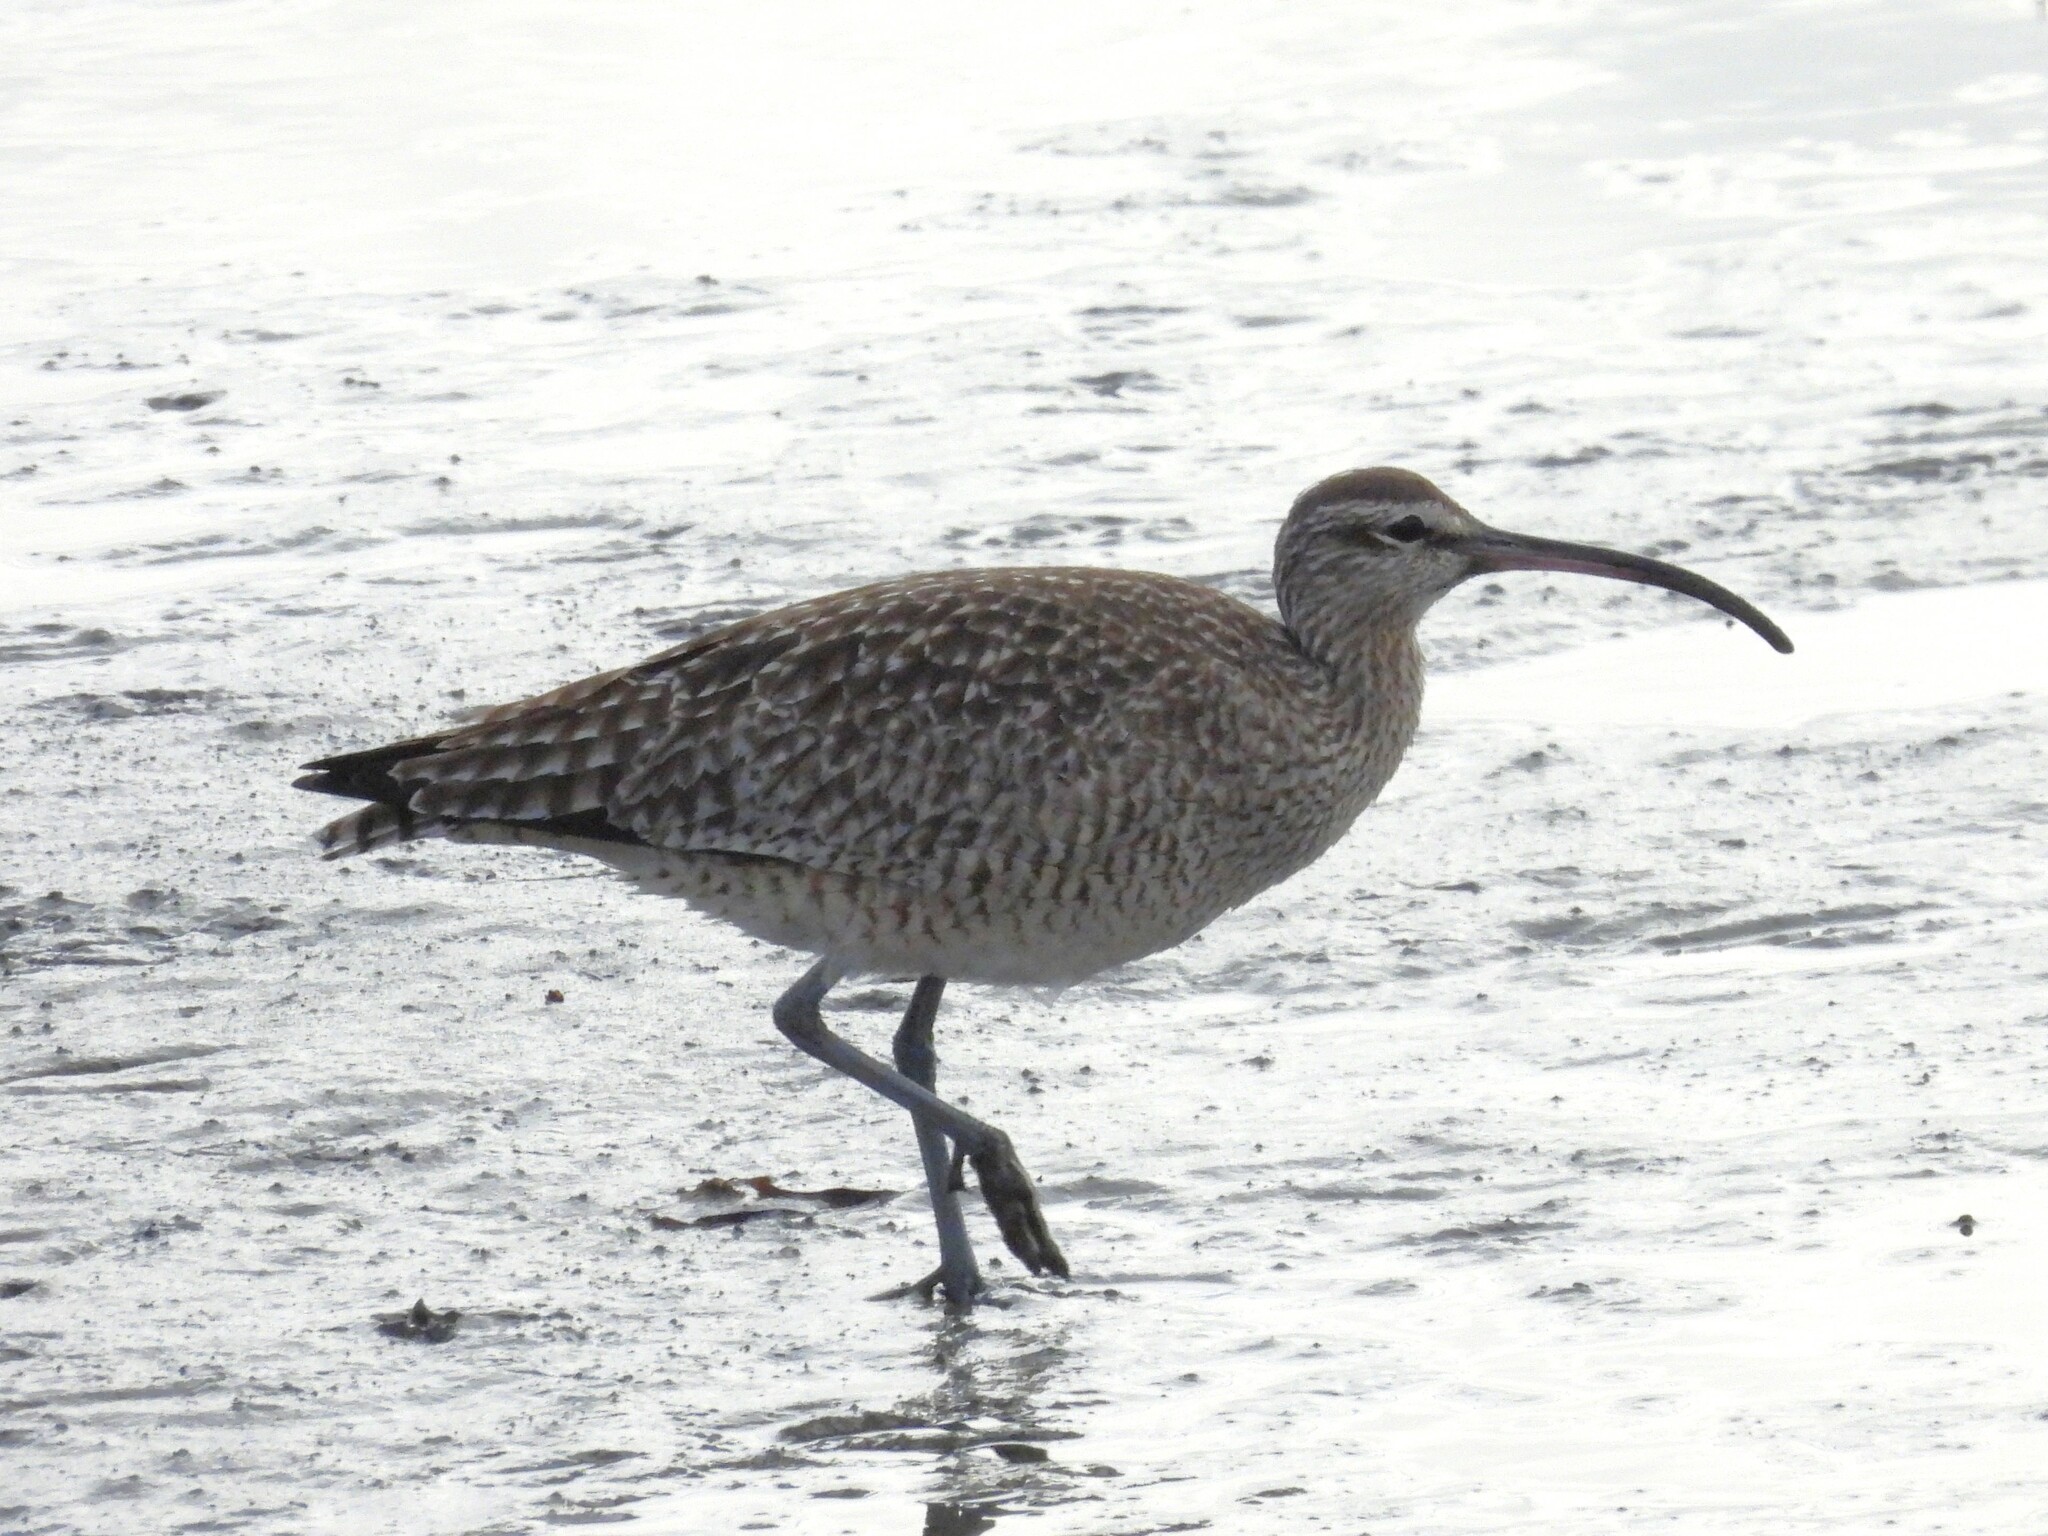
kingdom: Animalia
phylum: Chordata
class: Aves
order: Charadriiformes
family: Scolopacidae
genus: Numenius
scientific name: Numenius phaeopus
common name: Whimbrel
